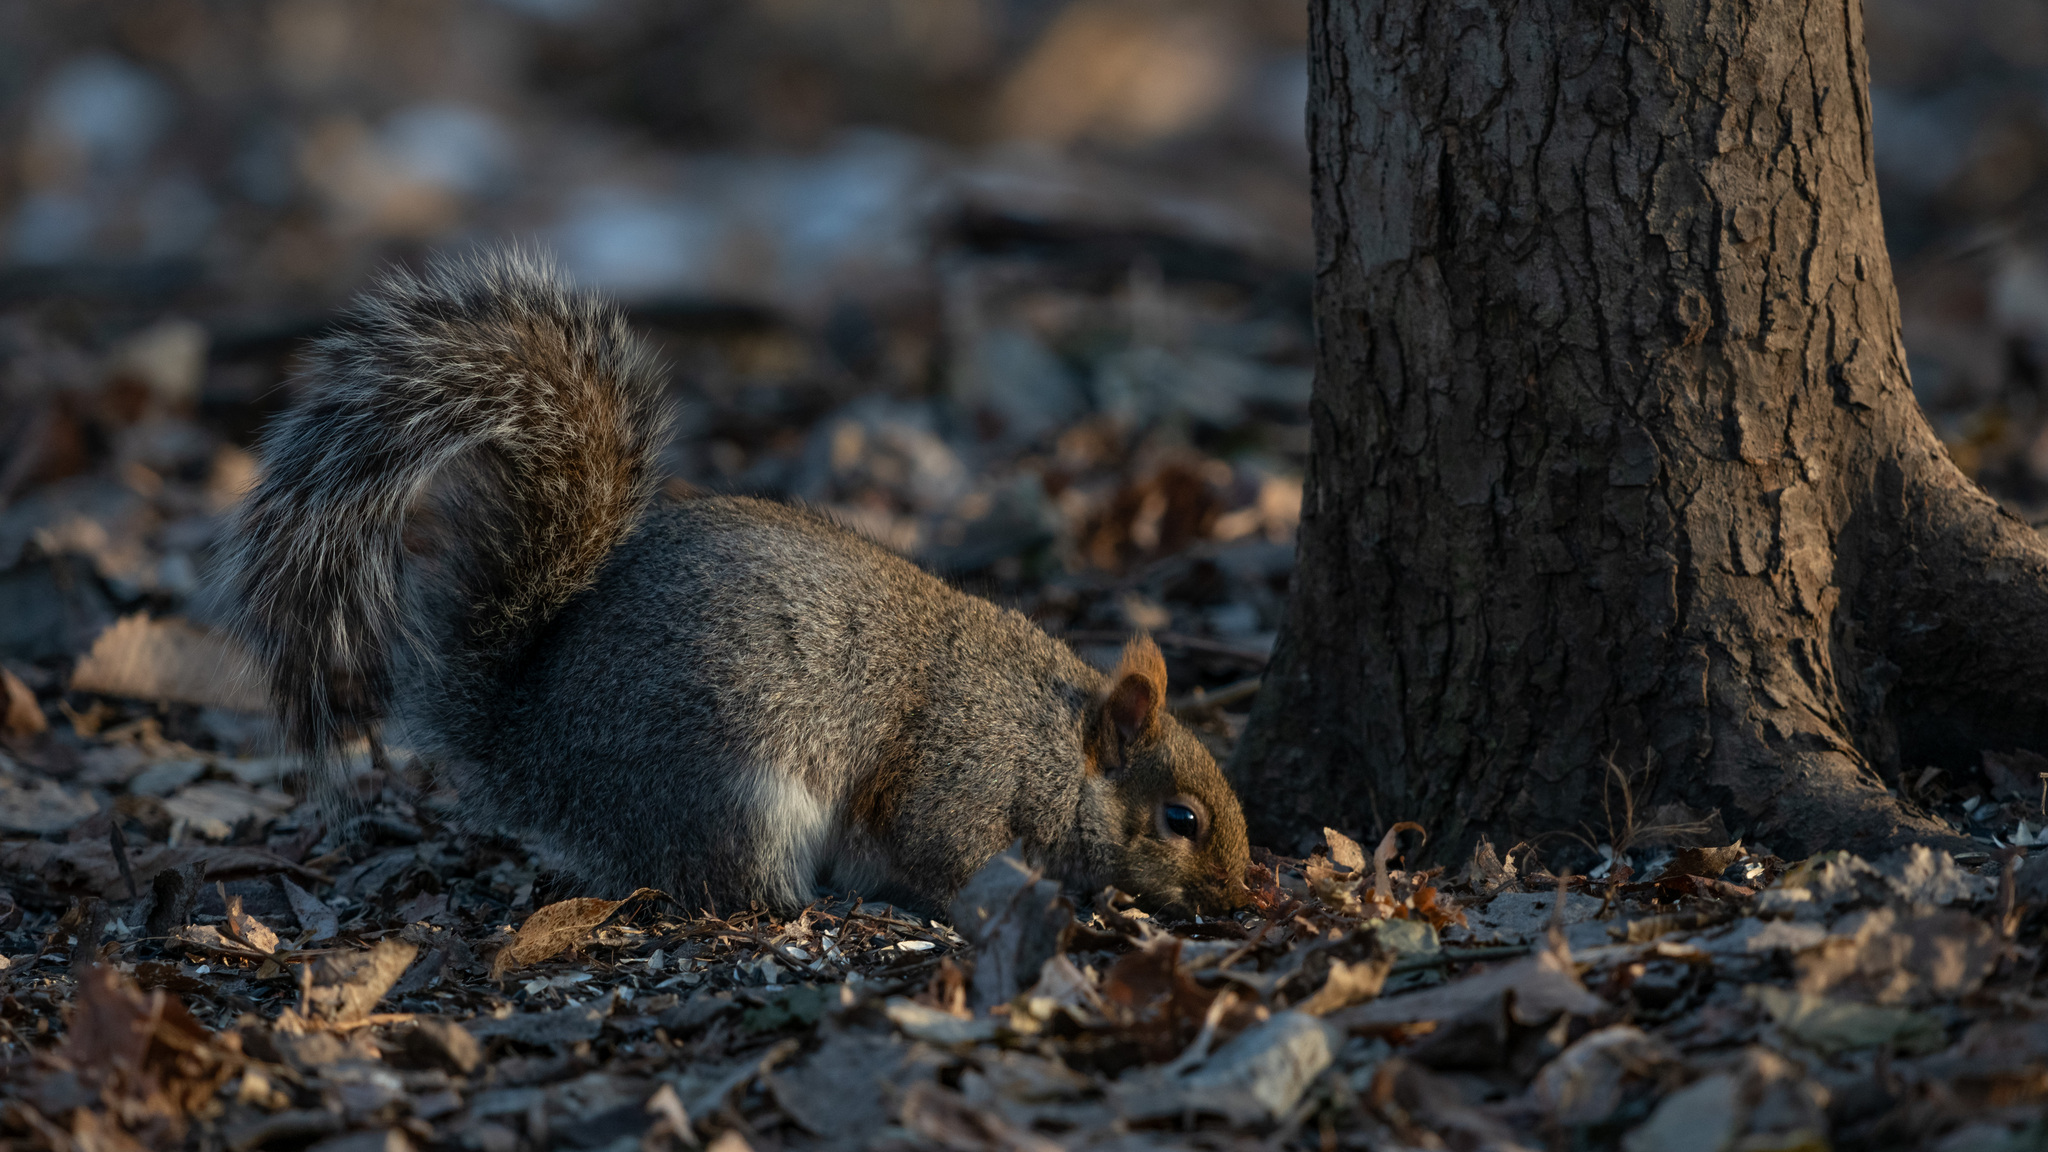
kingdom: Animalia
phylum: Chordata
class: Mammalia
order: Rodentia
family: Sciuridae
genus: Sciurus
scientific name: Sciurus carolinensis
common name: Eastern gray squirrel
